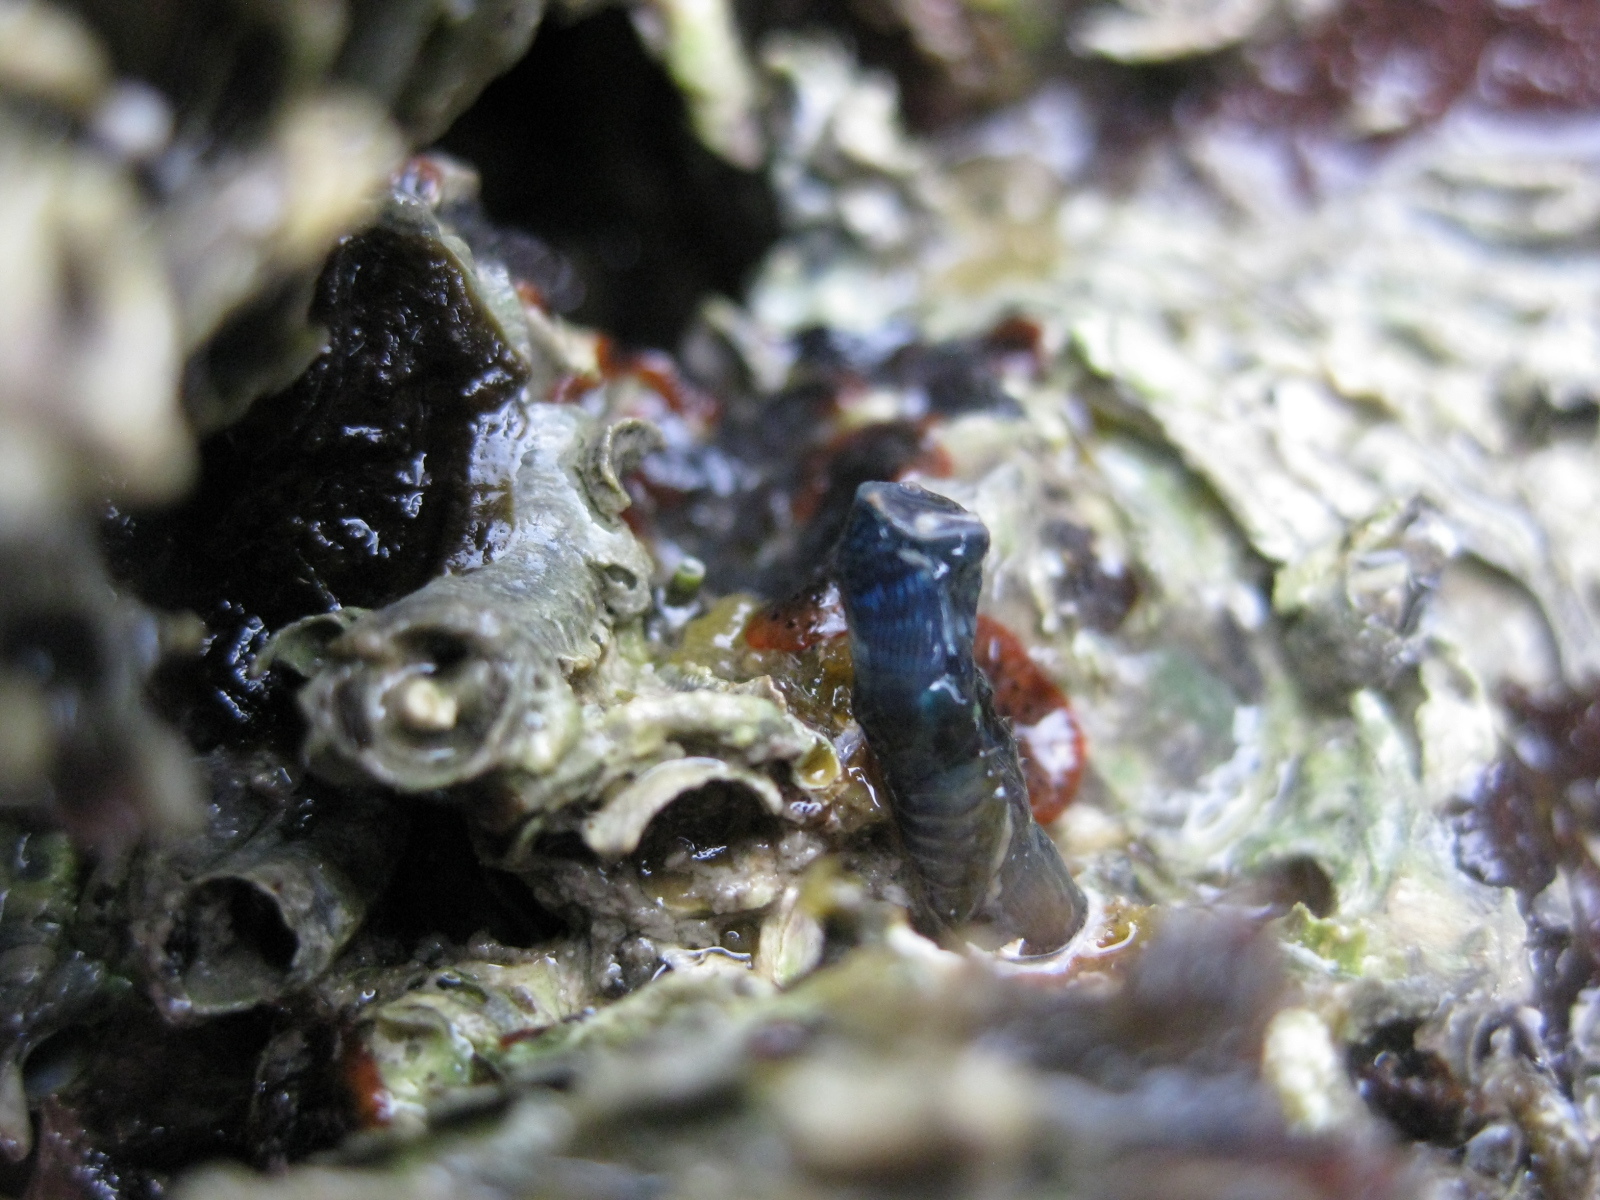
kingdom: Animalia
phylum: Annelida
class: Polychaeta
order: Sabellida
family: Serpulidae
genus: Spirobranchus
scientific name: Spirobranchus cariniferus
